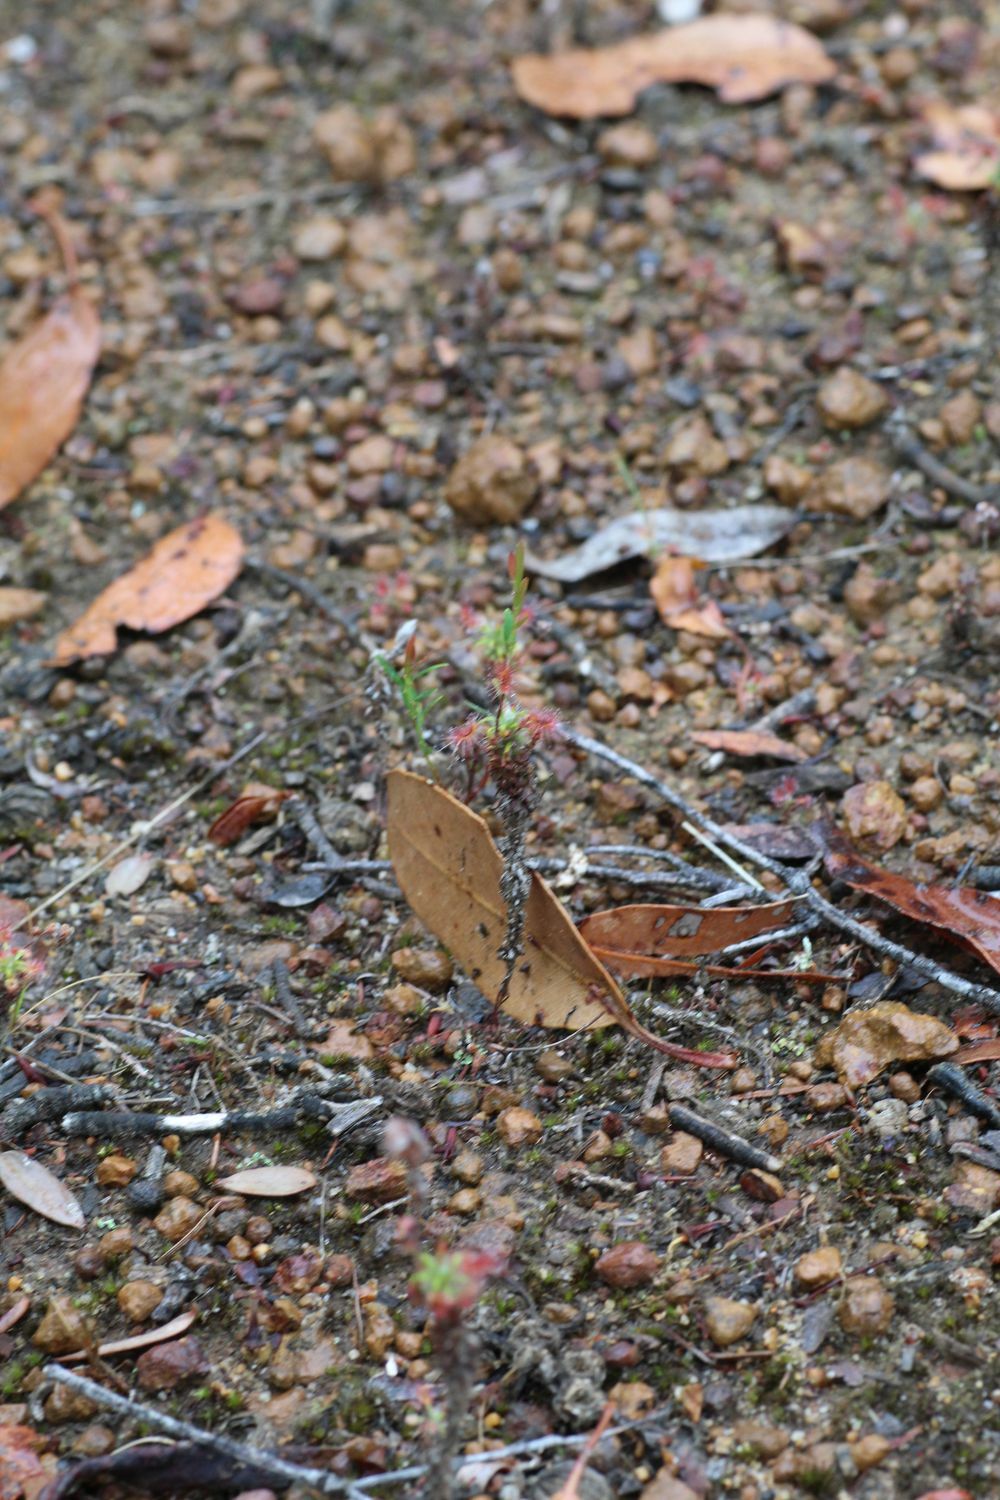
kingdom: Plantae
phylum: Tracheophyta
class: Magnoliopsida
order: Caryophyllales
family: Droseraceae
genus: Drosera
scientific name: Drosera lasiantha
